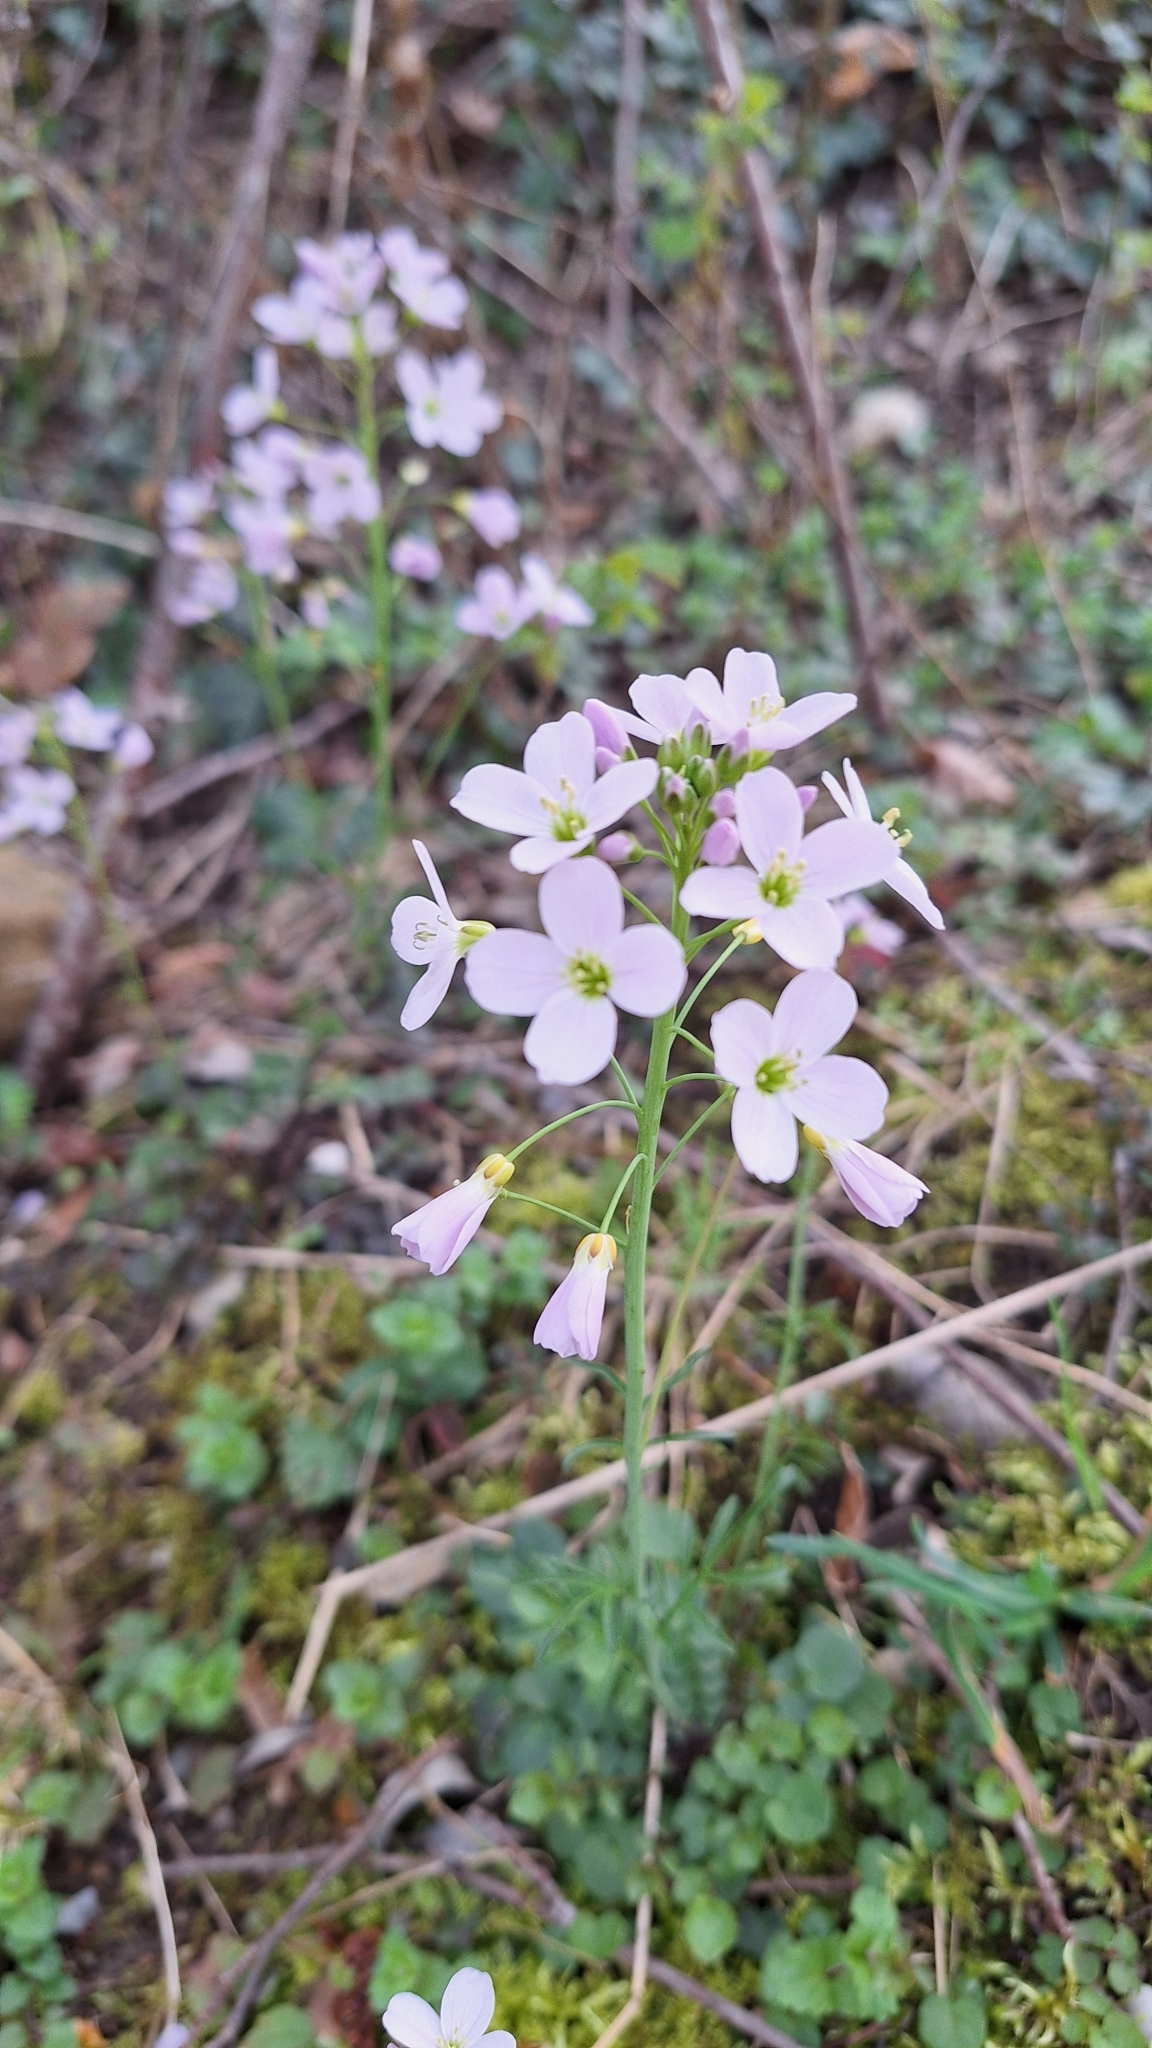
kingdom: Plantae
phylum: Tracheophyta
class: Magnoliopsida
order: Brassicales
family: Brassicaceae
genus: Cardamine
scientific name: Cardamine pratensis
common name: Cuckoo flower
